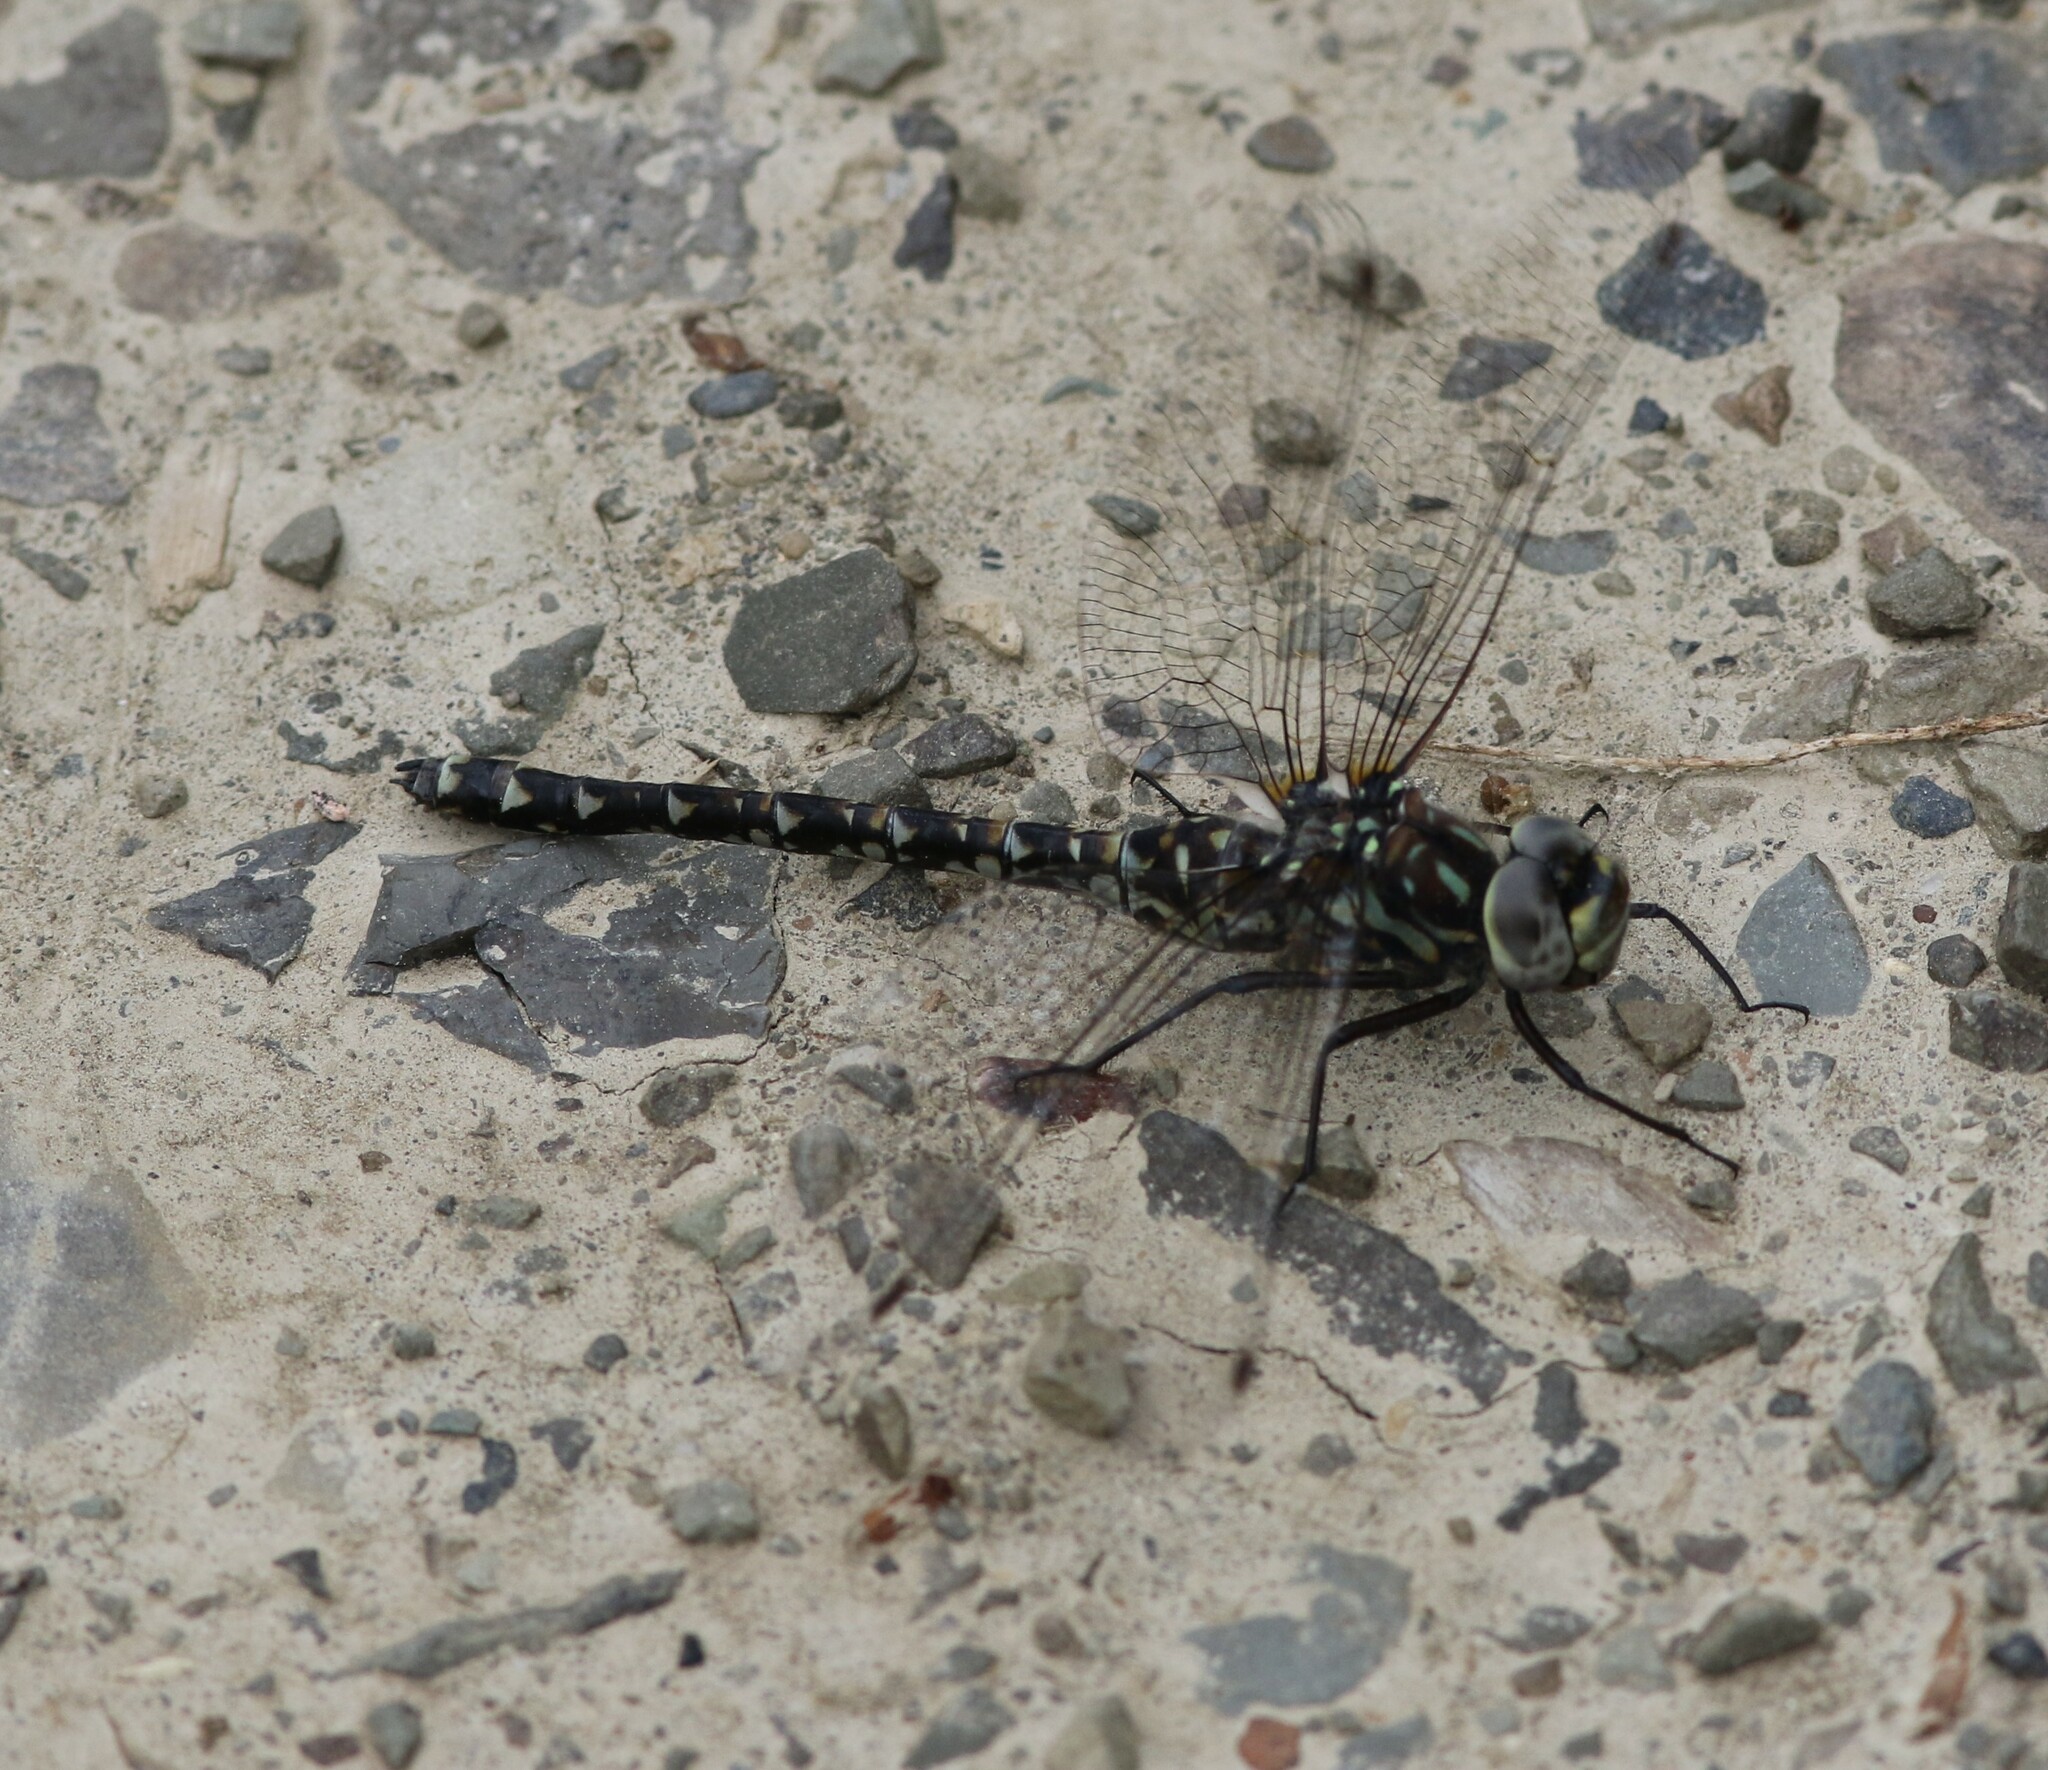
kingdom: Animalia
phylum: Arthropoda
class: Insecta
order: Odonata
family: Aeshnidae
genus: Gomphaeschna
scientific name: Gomphaeschna furcillata
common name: Harlequin darner
